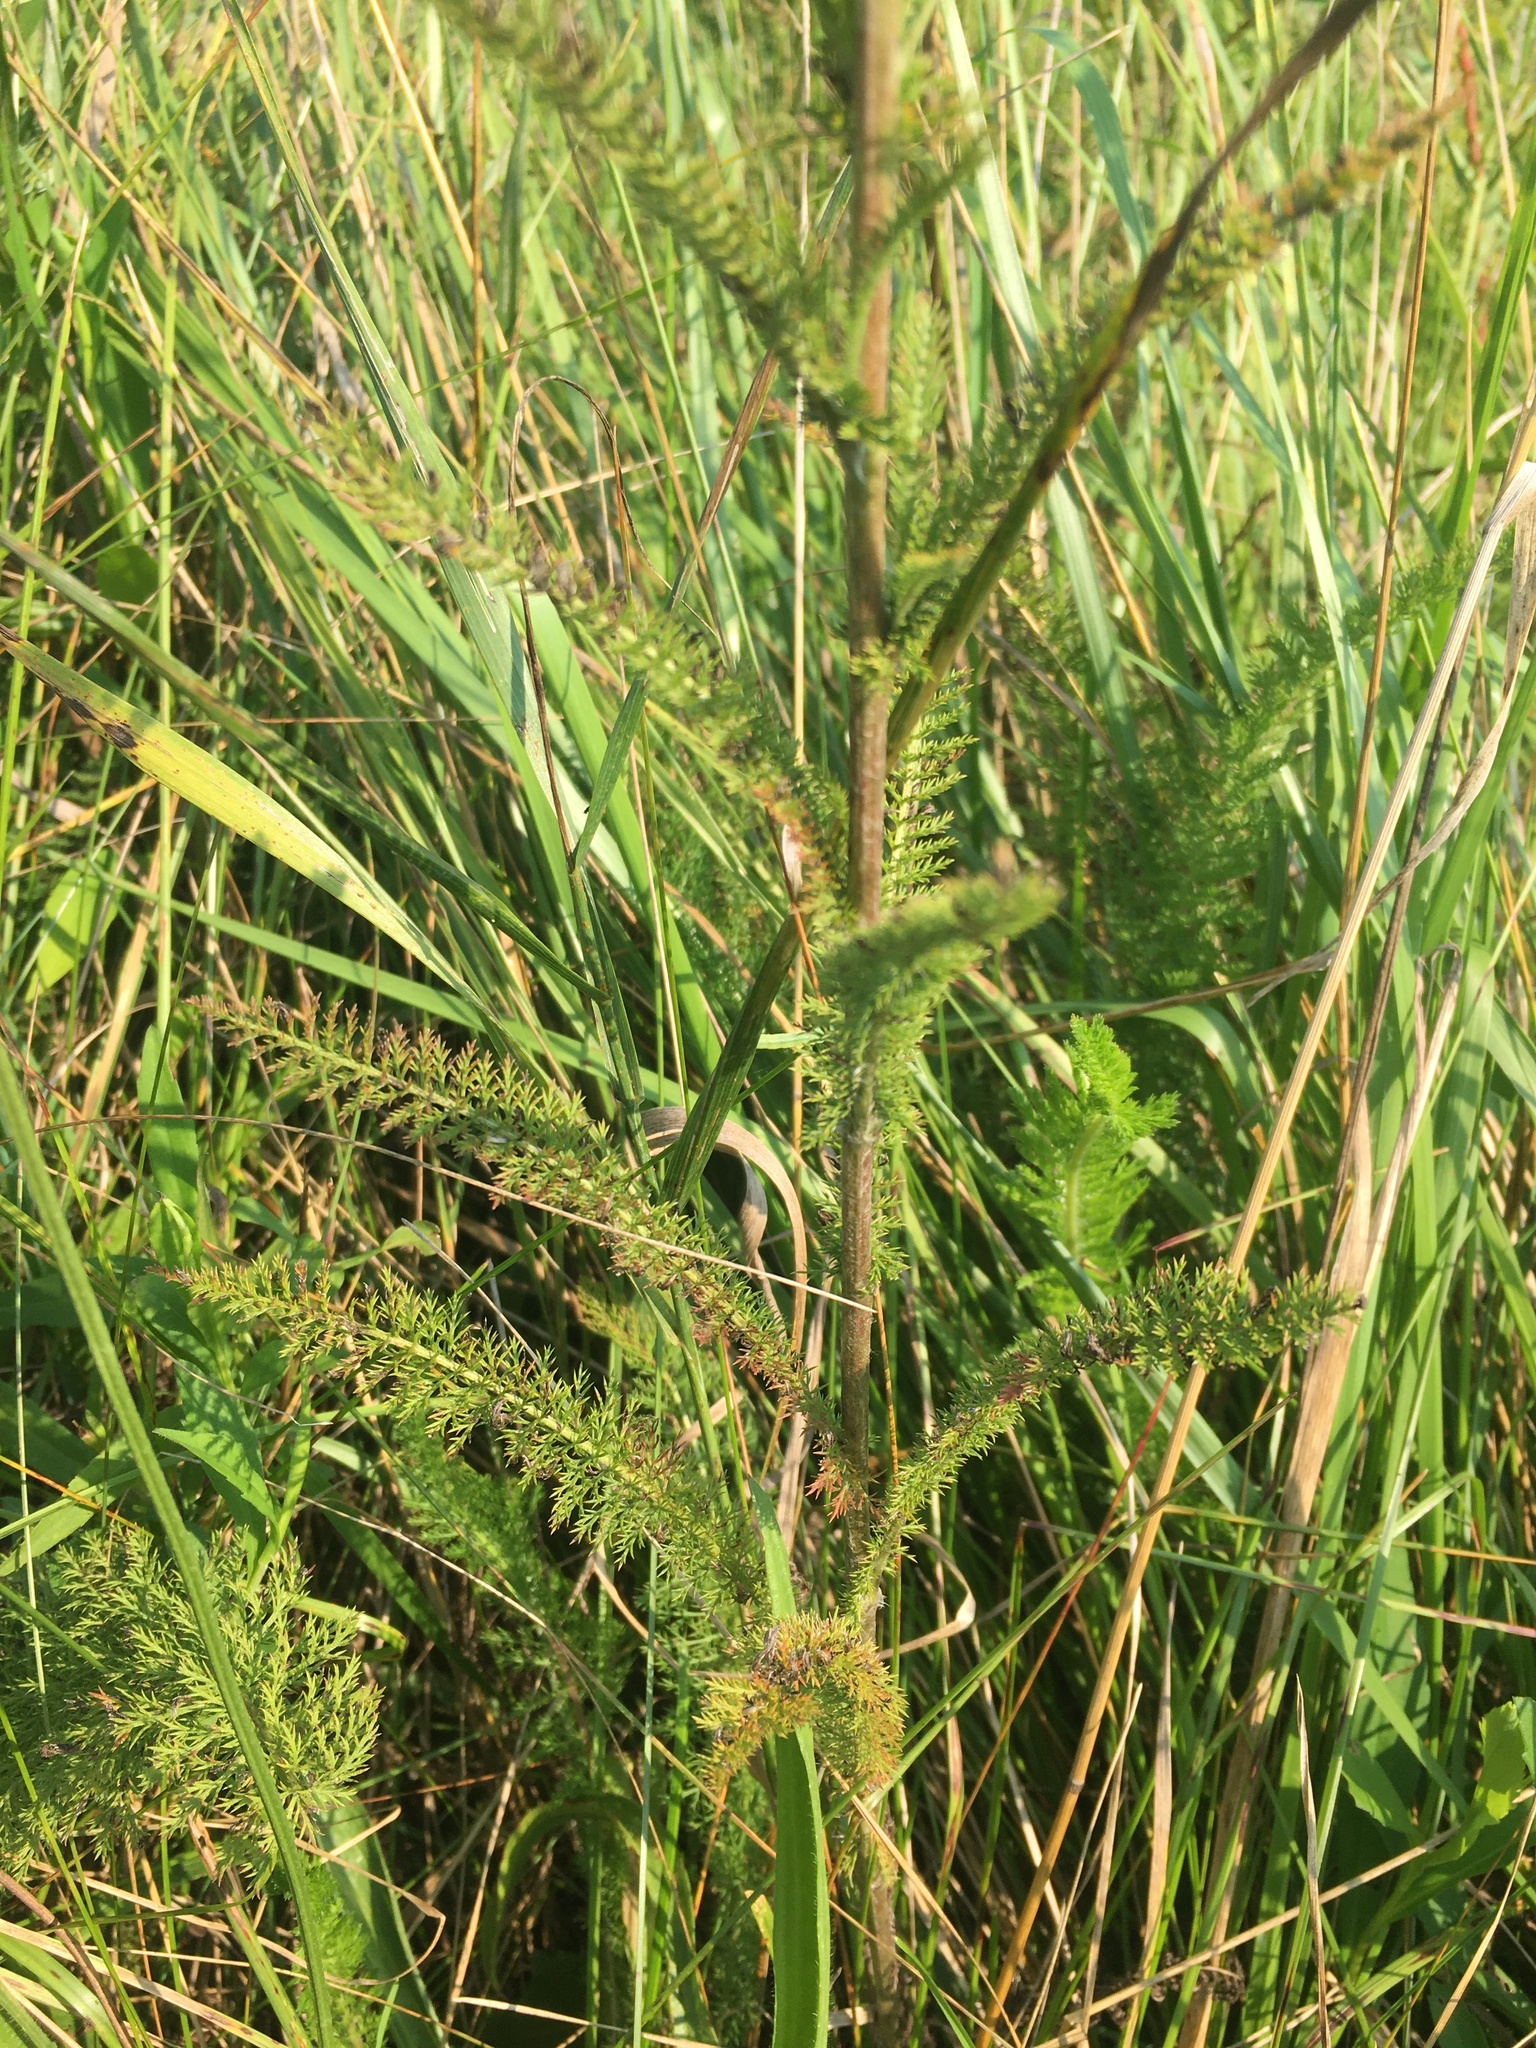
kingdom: Plantae
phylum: Tracheophyta
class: Magnoliopsida
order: Asterales
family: Asteraceae
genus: Achillea
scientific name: Achillea millefolium
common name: Yarrow
